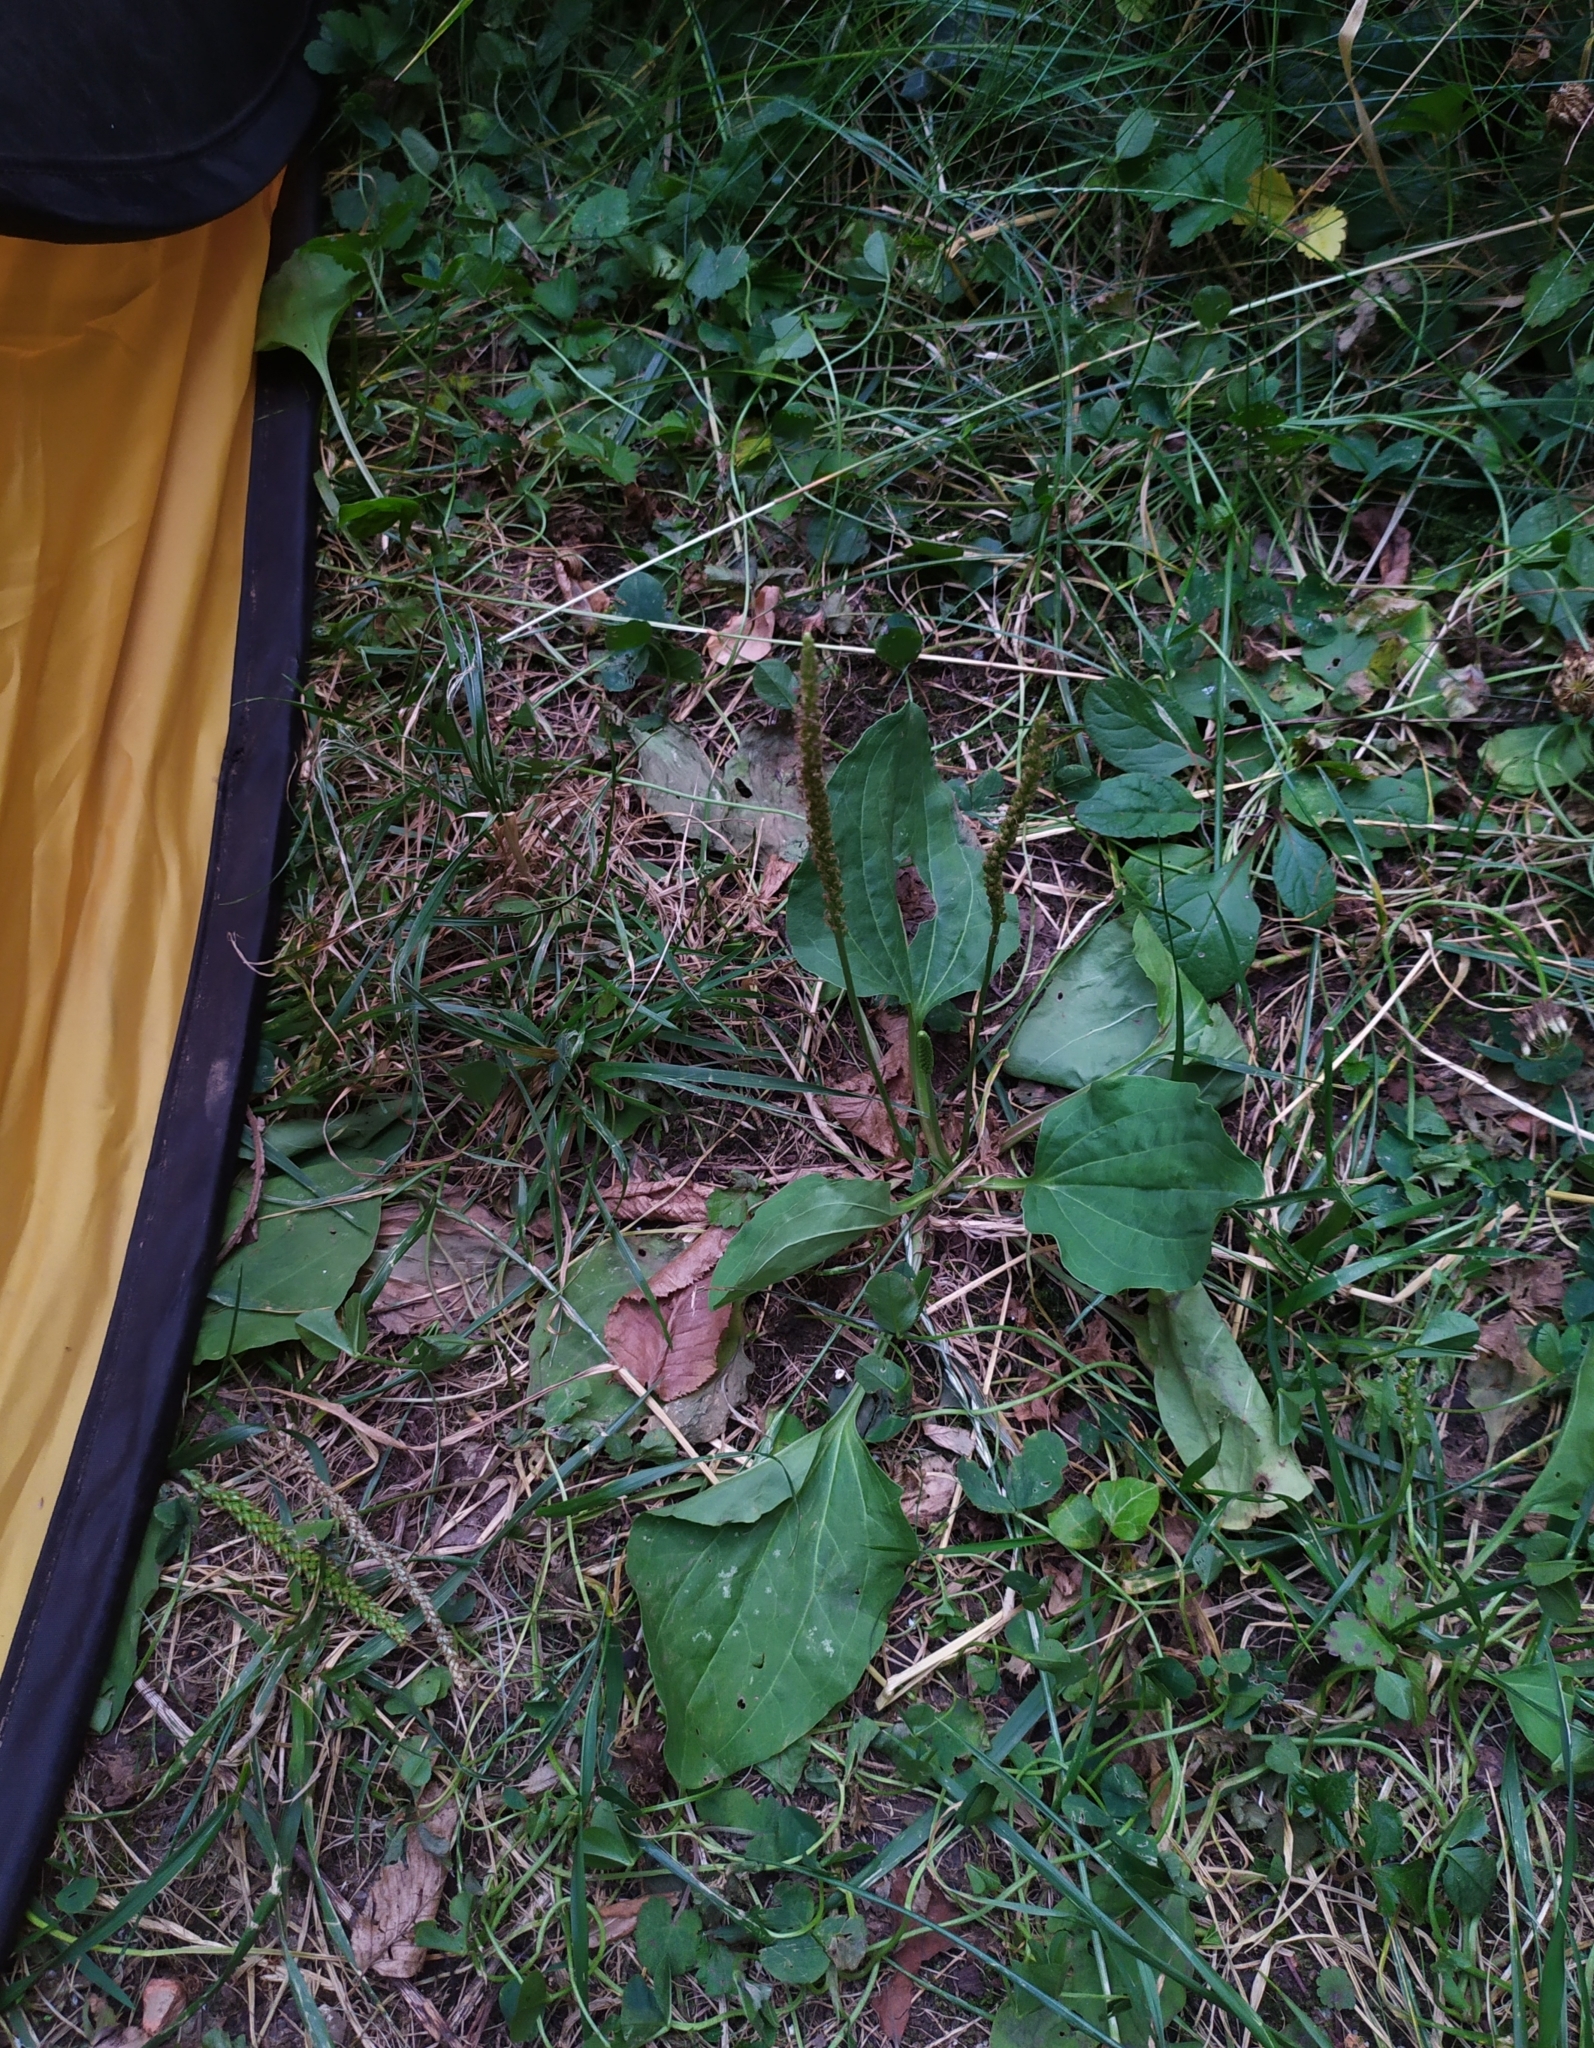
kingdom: Plantae
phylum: Tracheophyta
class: Magnoliopsida
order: Lamiales
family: Plantaginaceae
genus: Plantago
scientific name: Plantago major
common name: Common plantain
